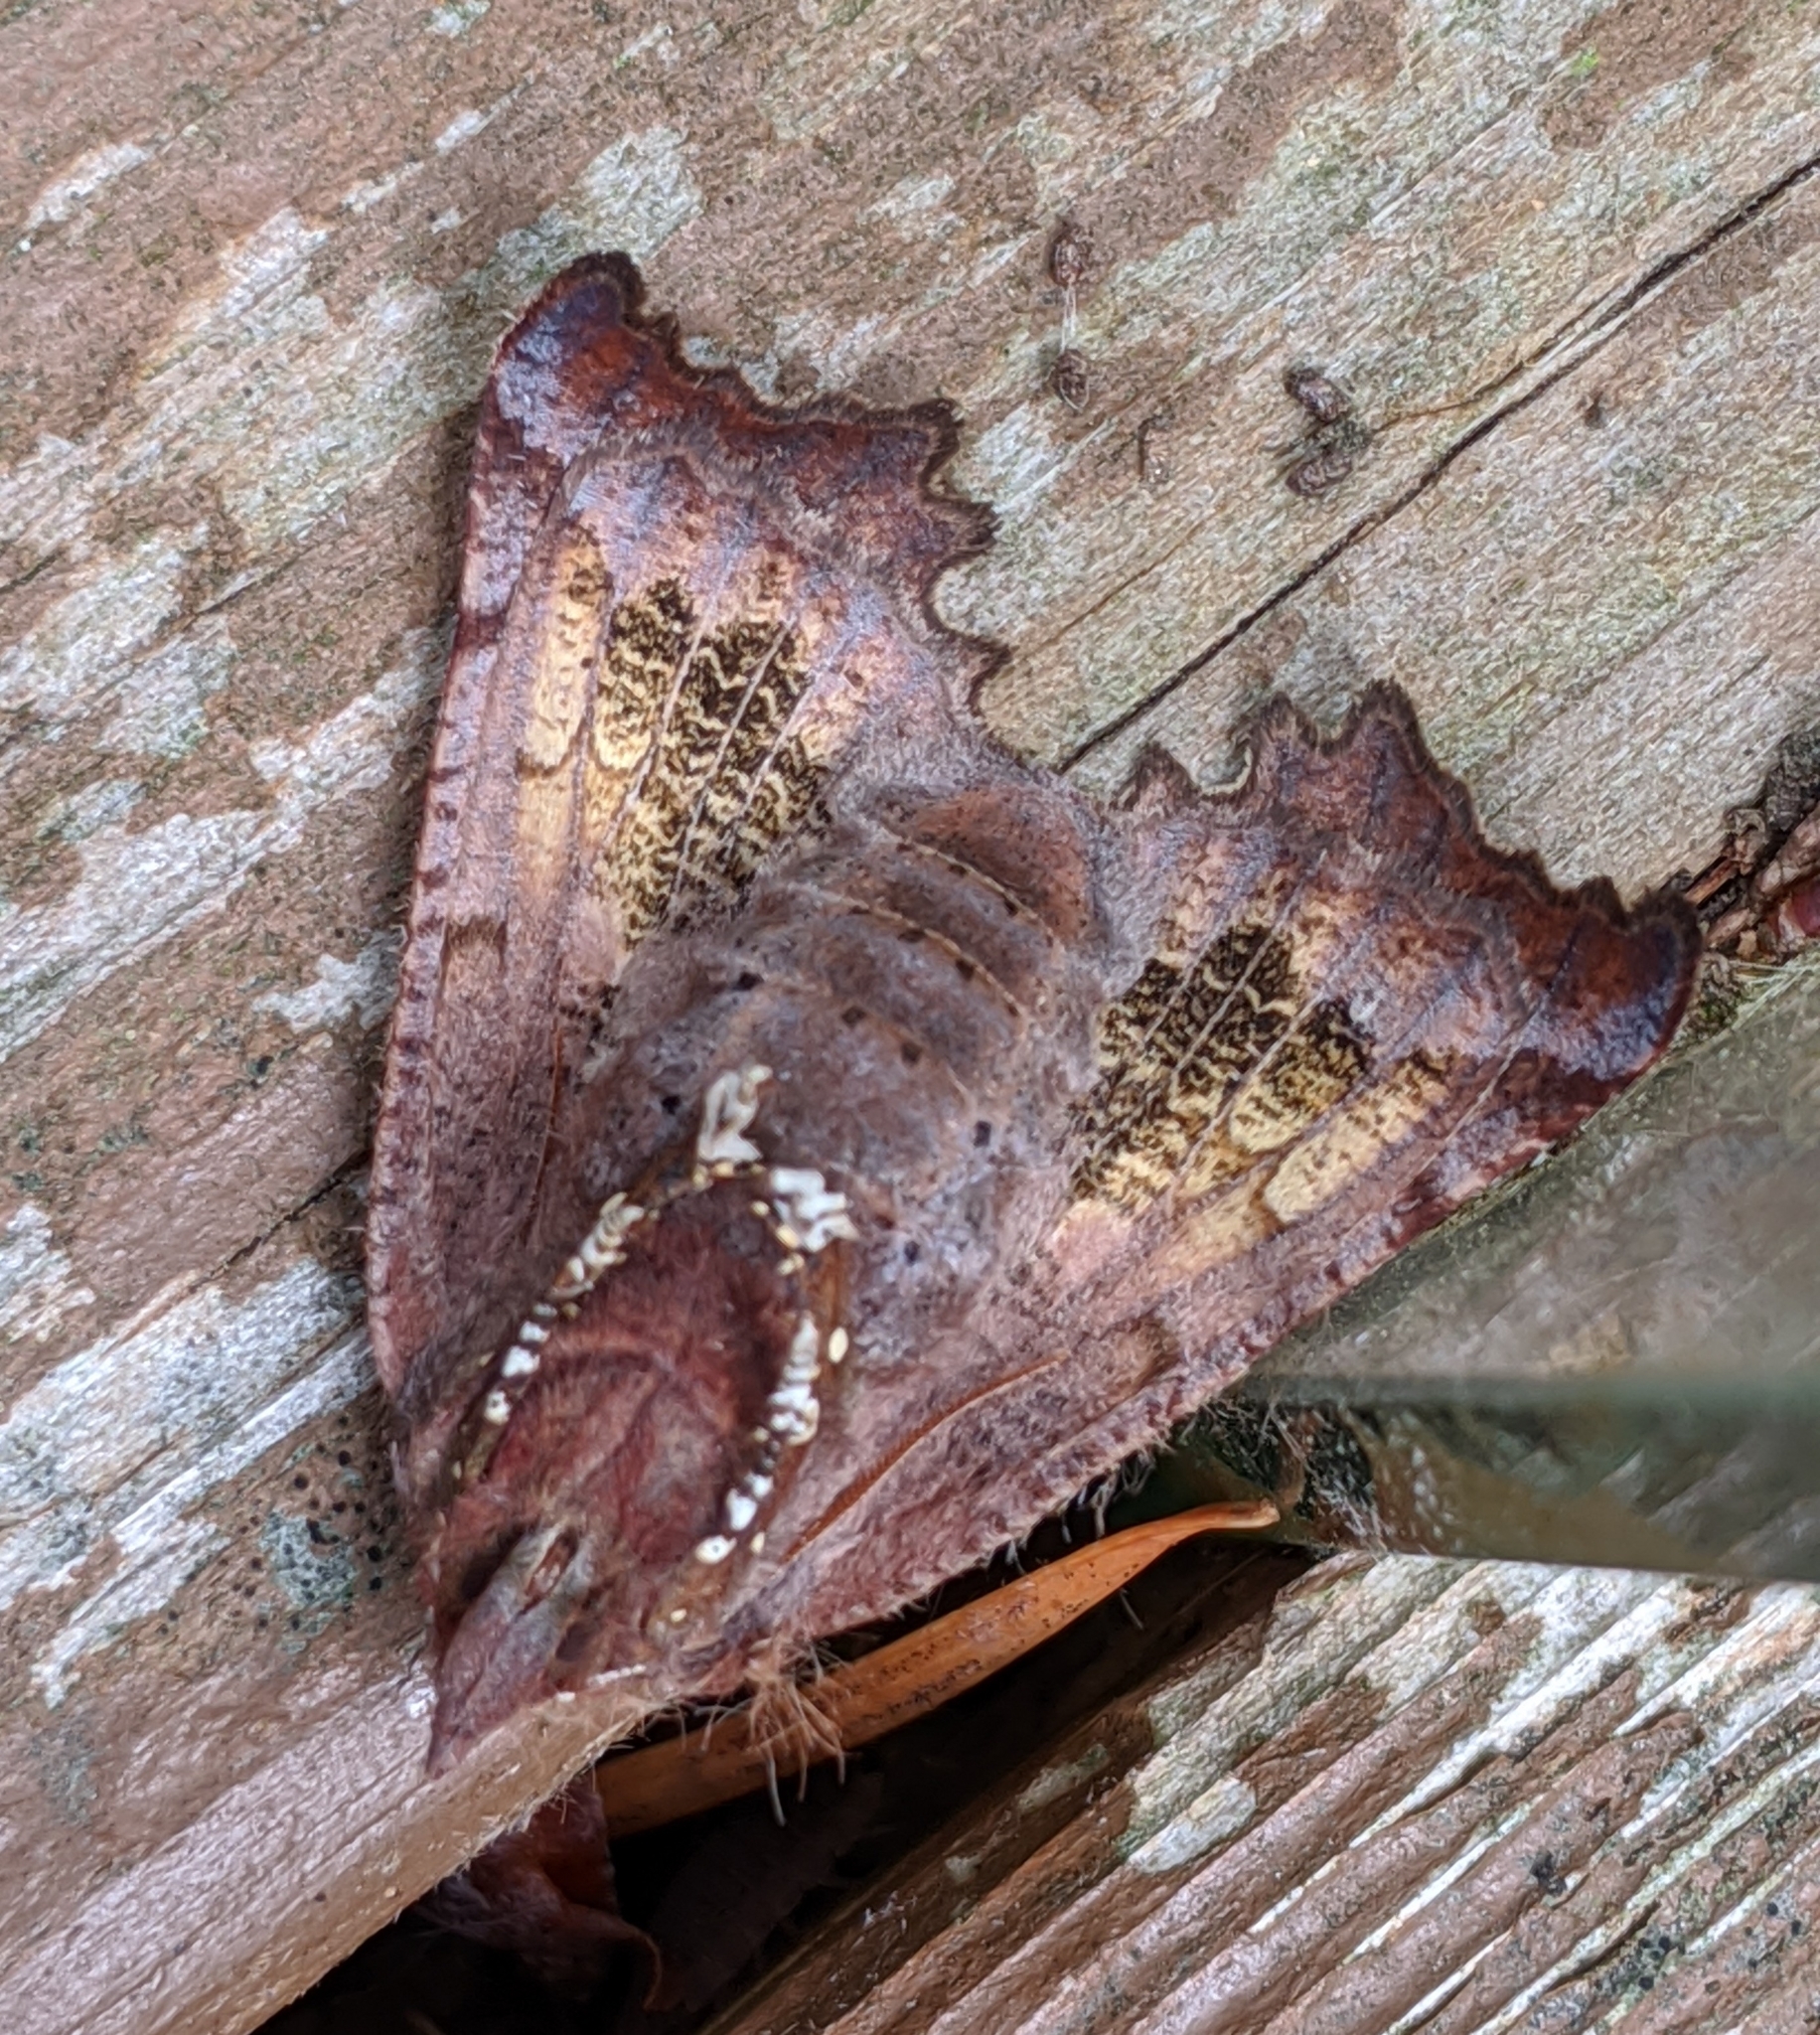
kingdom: Animalia
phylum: Arthropoda
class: Insecta
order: Lepidoptera
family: Erebidae
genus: Scoliopteryx
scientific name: Scoliopteryx libatrix
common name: Herald
